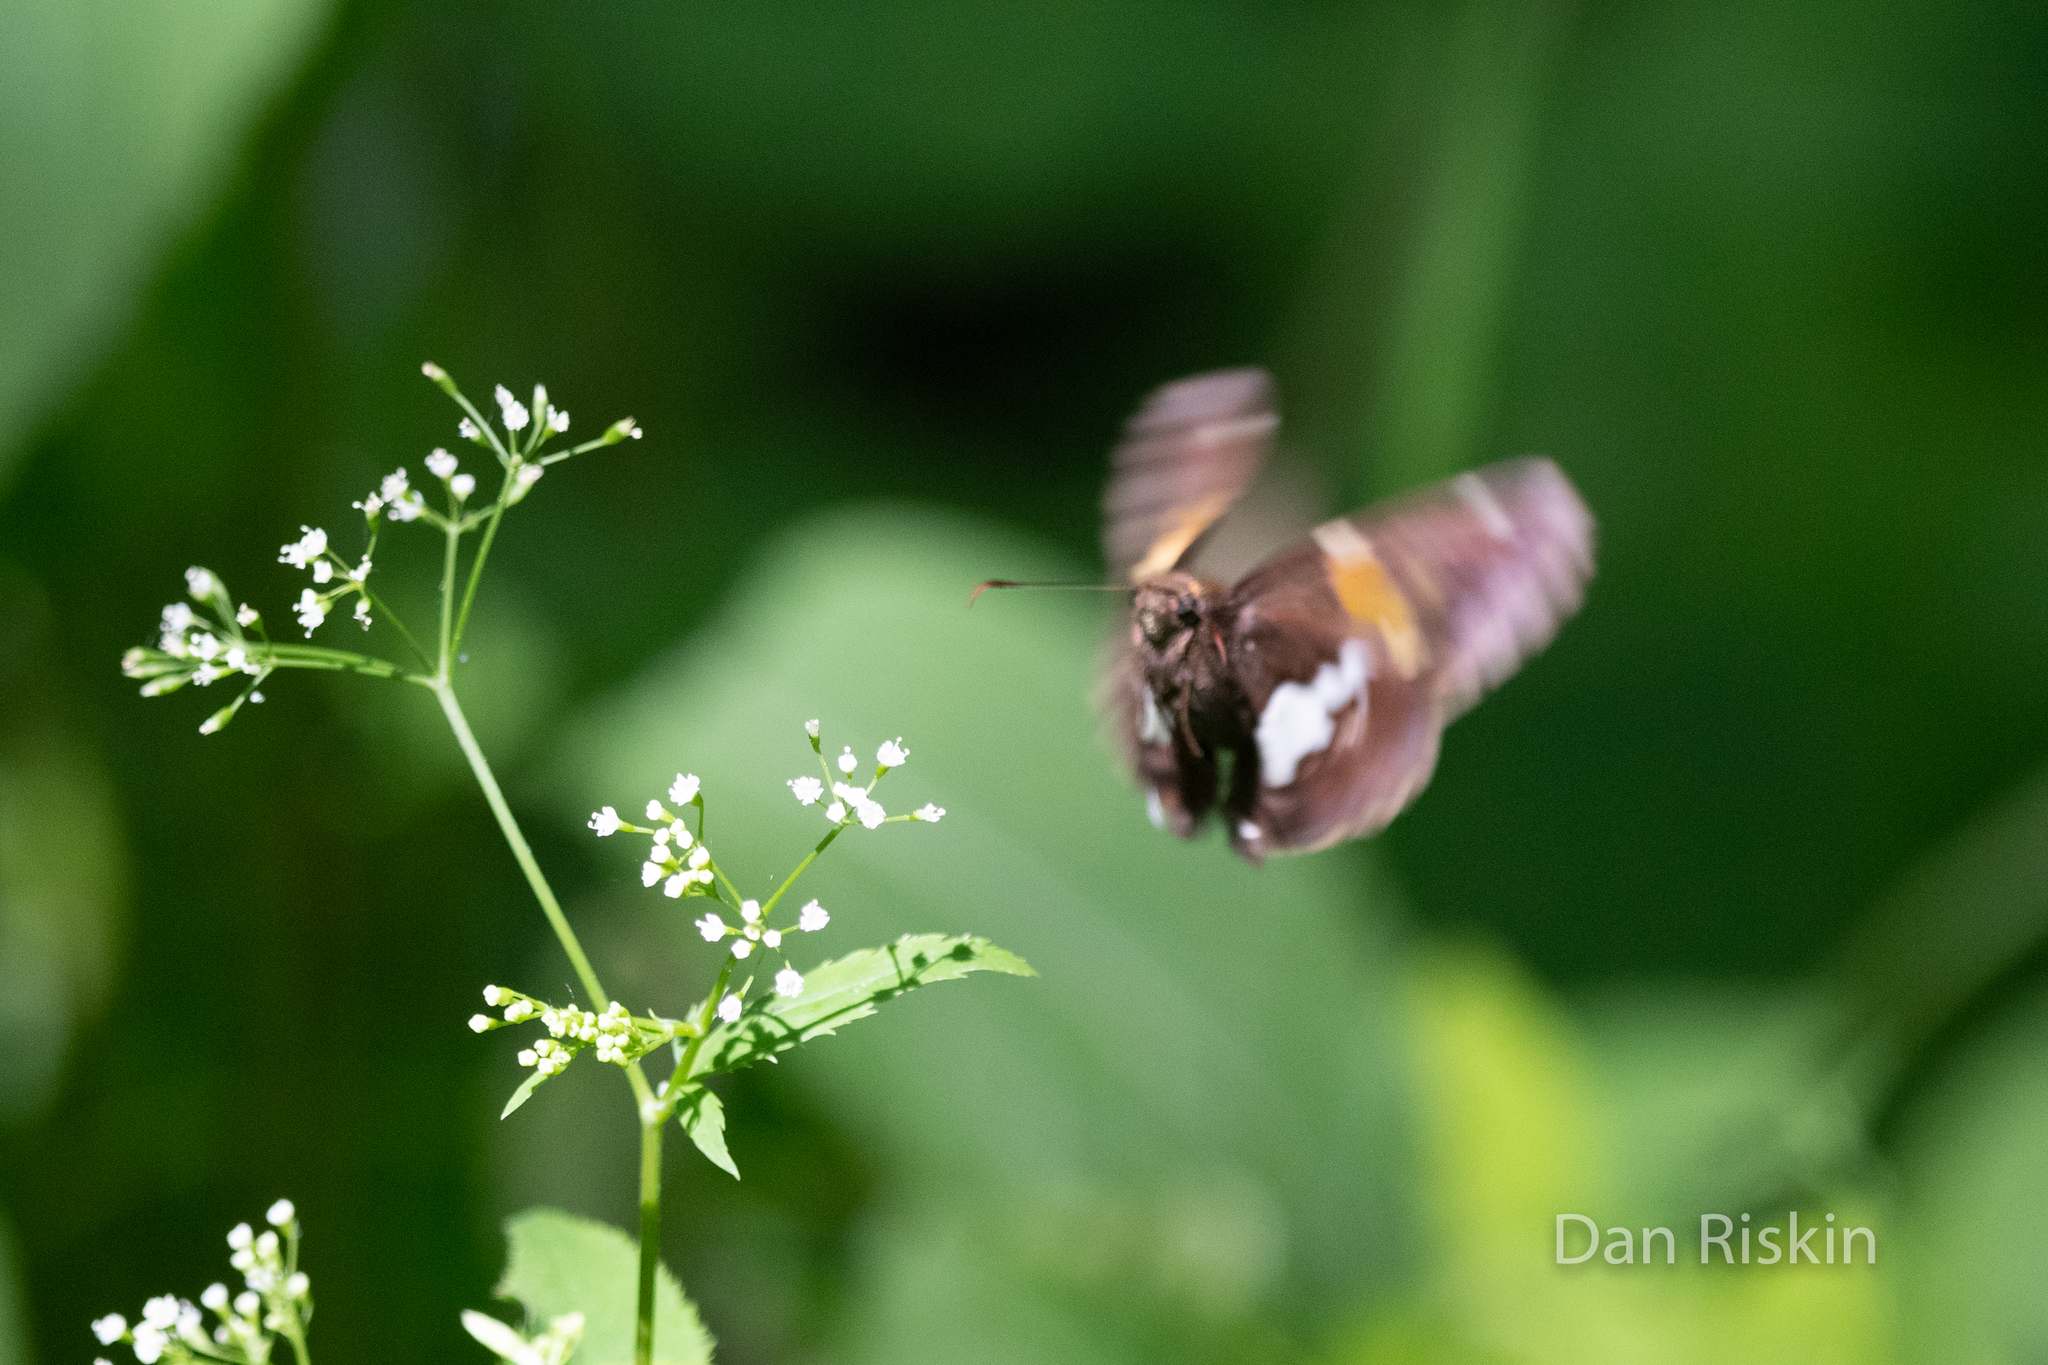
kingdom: Animalia
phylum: Arthropoda
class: Insecta
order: Lepidoptera
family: Hesperiidae
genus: Epargyreus
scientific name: Epargyreus clarus
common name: Silver-spotted skipper
